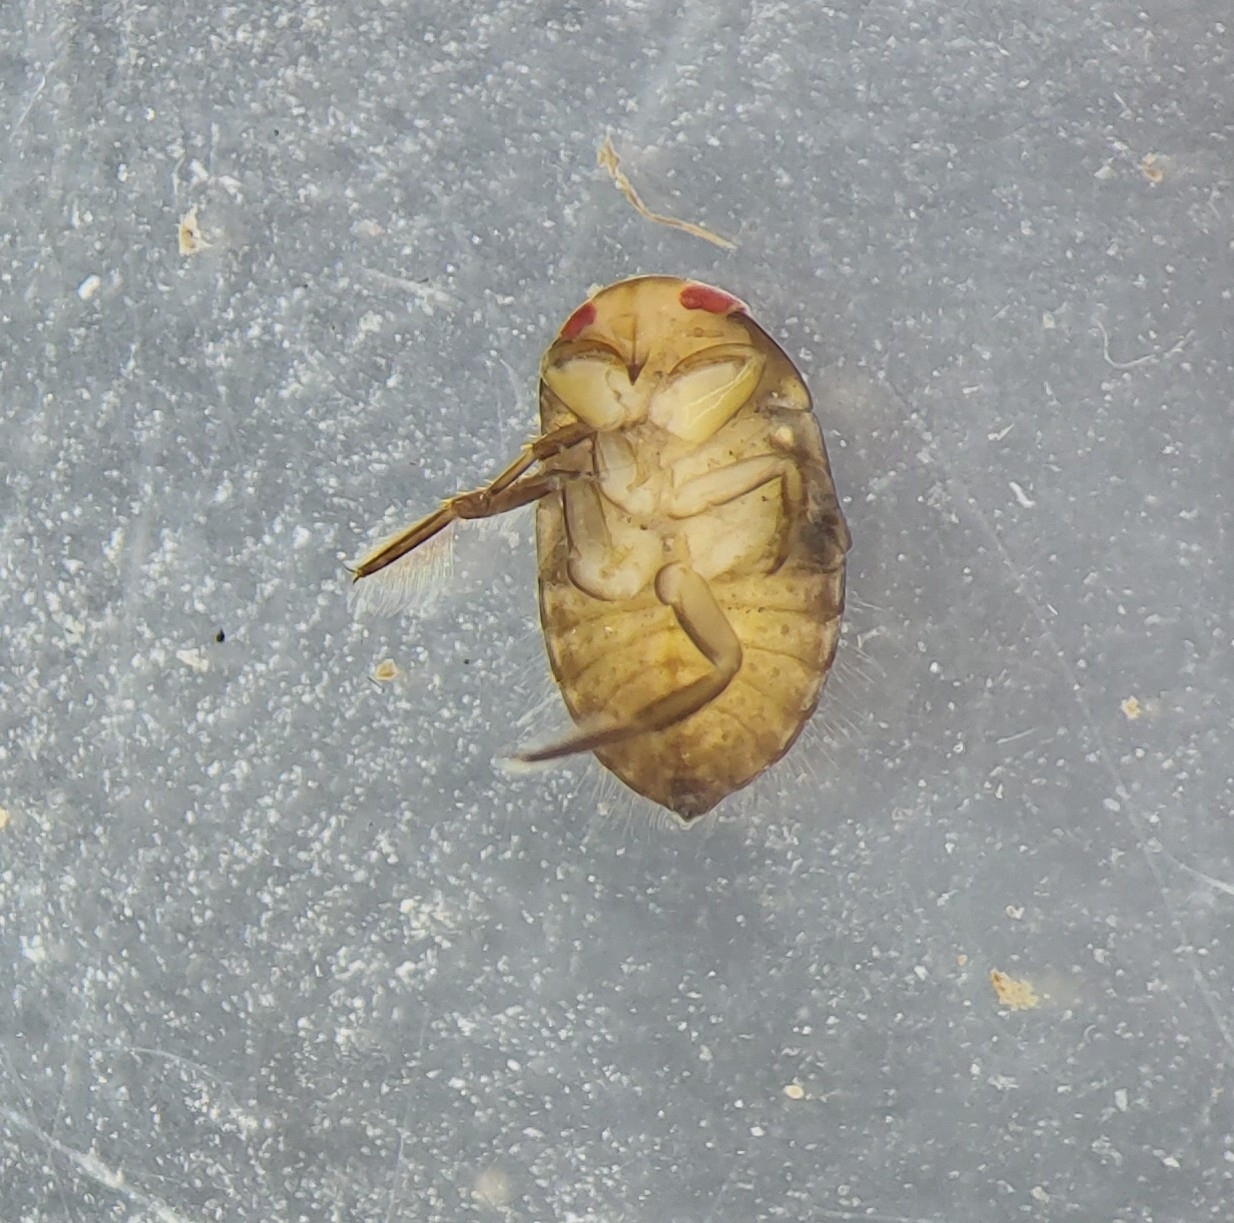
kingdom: Animalia
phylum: Arthropoda
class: Insecta
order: Hemiptera
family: Naucoridae
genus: Ilyocoris
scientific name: Ilyocoris cimicoides
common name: Saucer bugs
